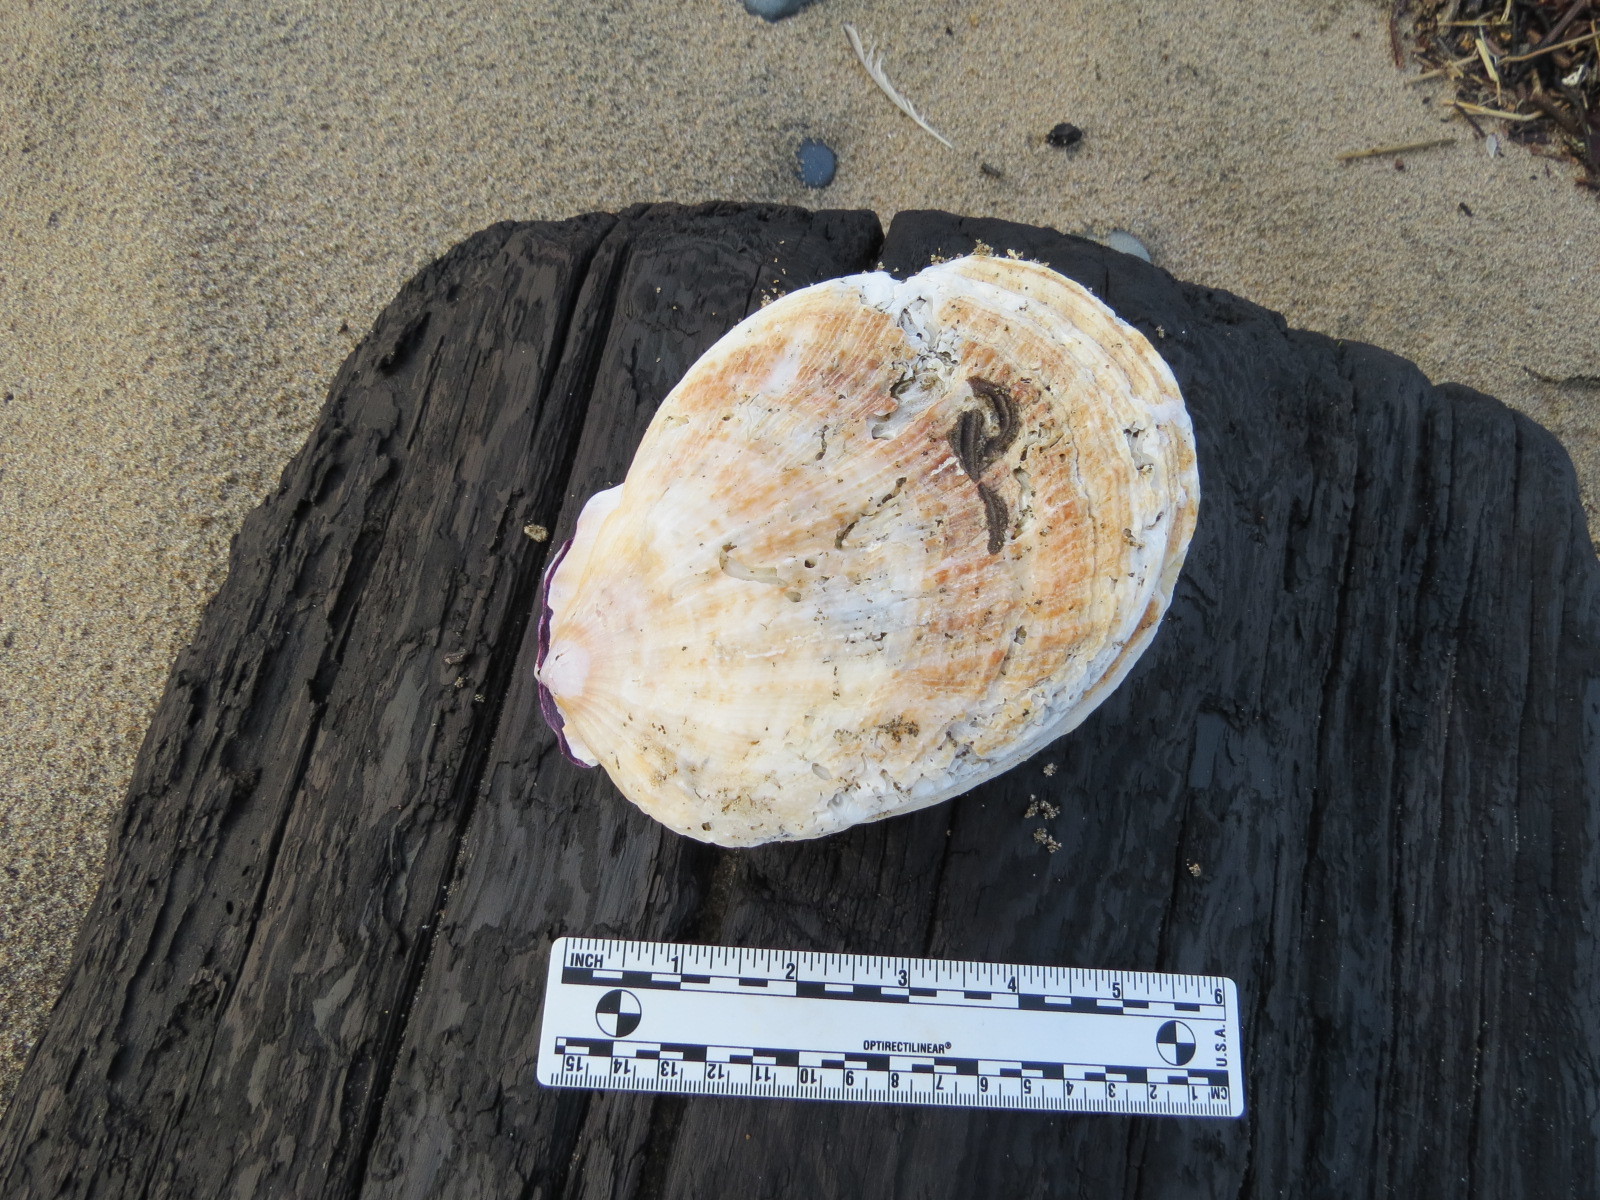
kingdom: Animalia
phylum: Mollusca
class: Bivalvia
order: Pectinida
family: Pectinidae
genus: Crassadoma
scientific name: Crassadoma gigantea
